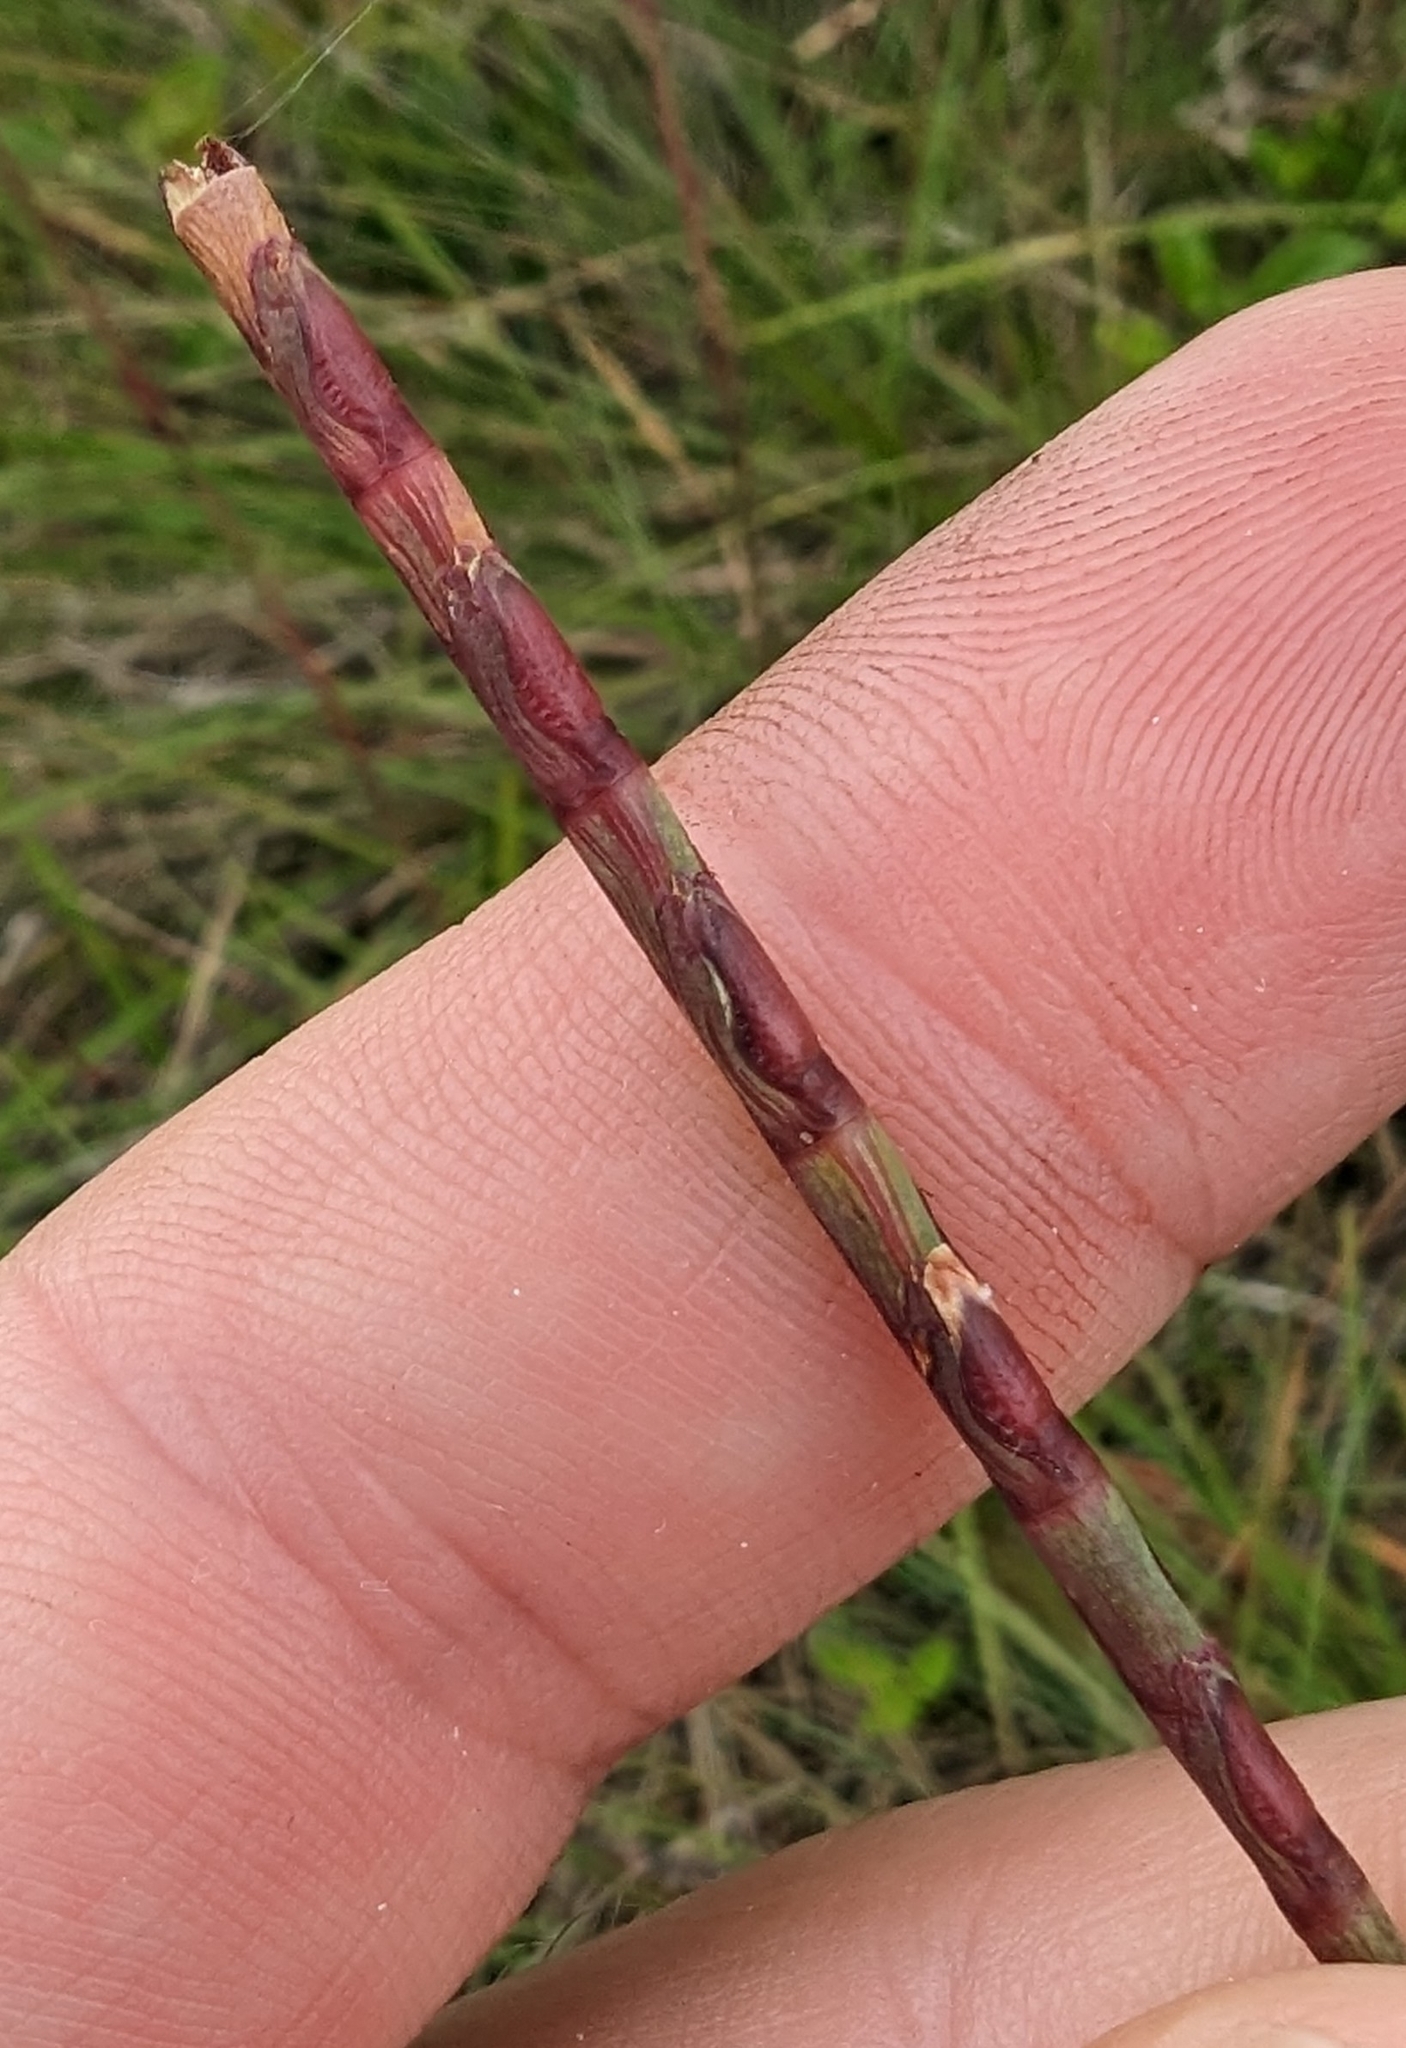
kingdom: Plantae
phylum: Tracheophyta
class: Liliopsida
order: Poales
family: Poaceae
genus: Rottboellia
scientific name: Rottboellia campestris
